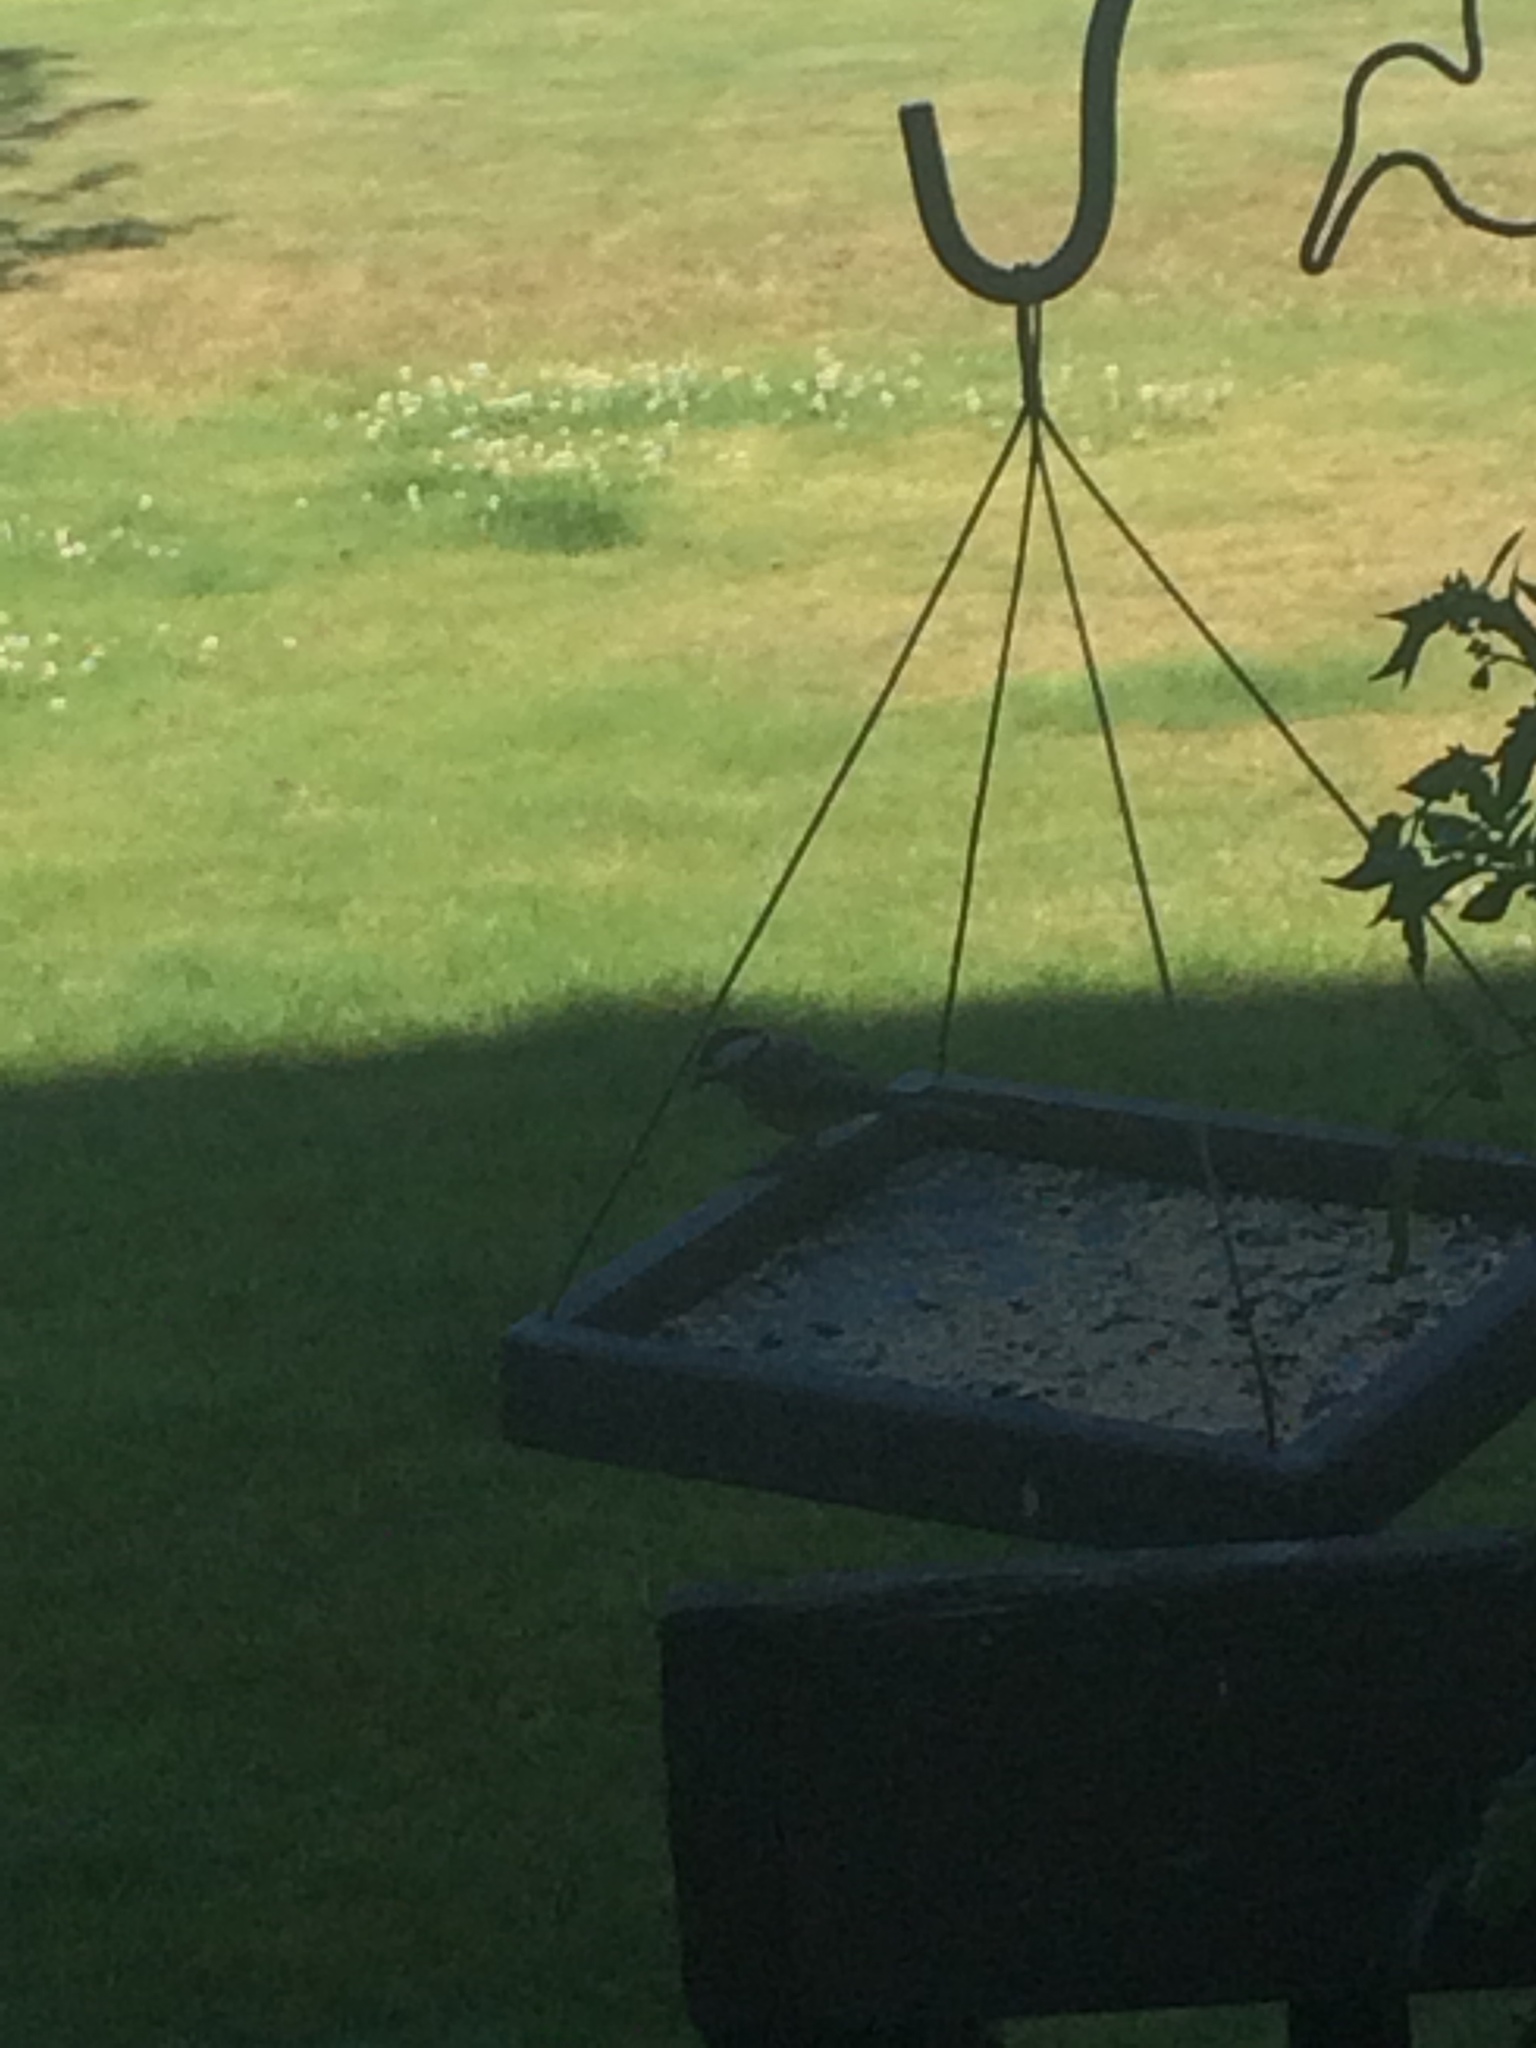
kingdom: Animalia
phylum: Chordata
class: Aves
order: Passeriformes
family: Paridae
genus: Poecile
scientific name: Poecile atricapillus
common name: Black-capped chickadee
